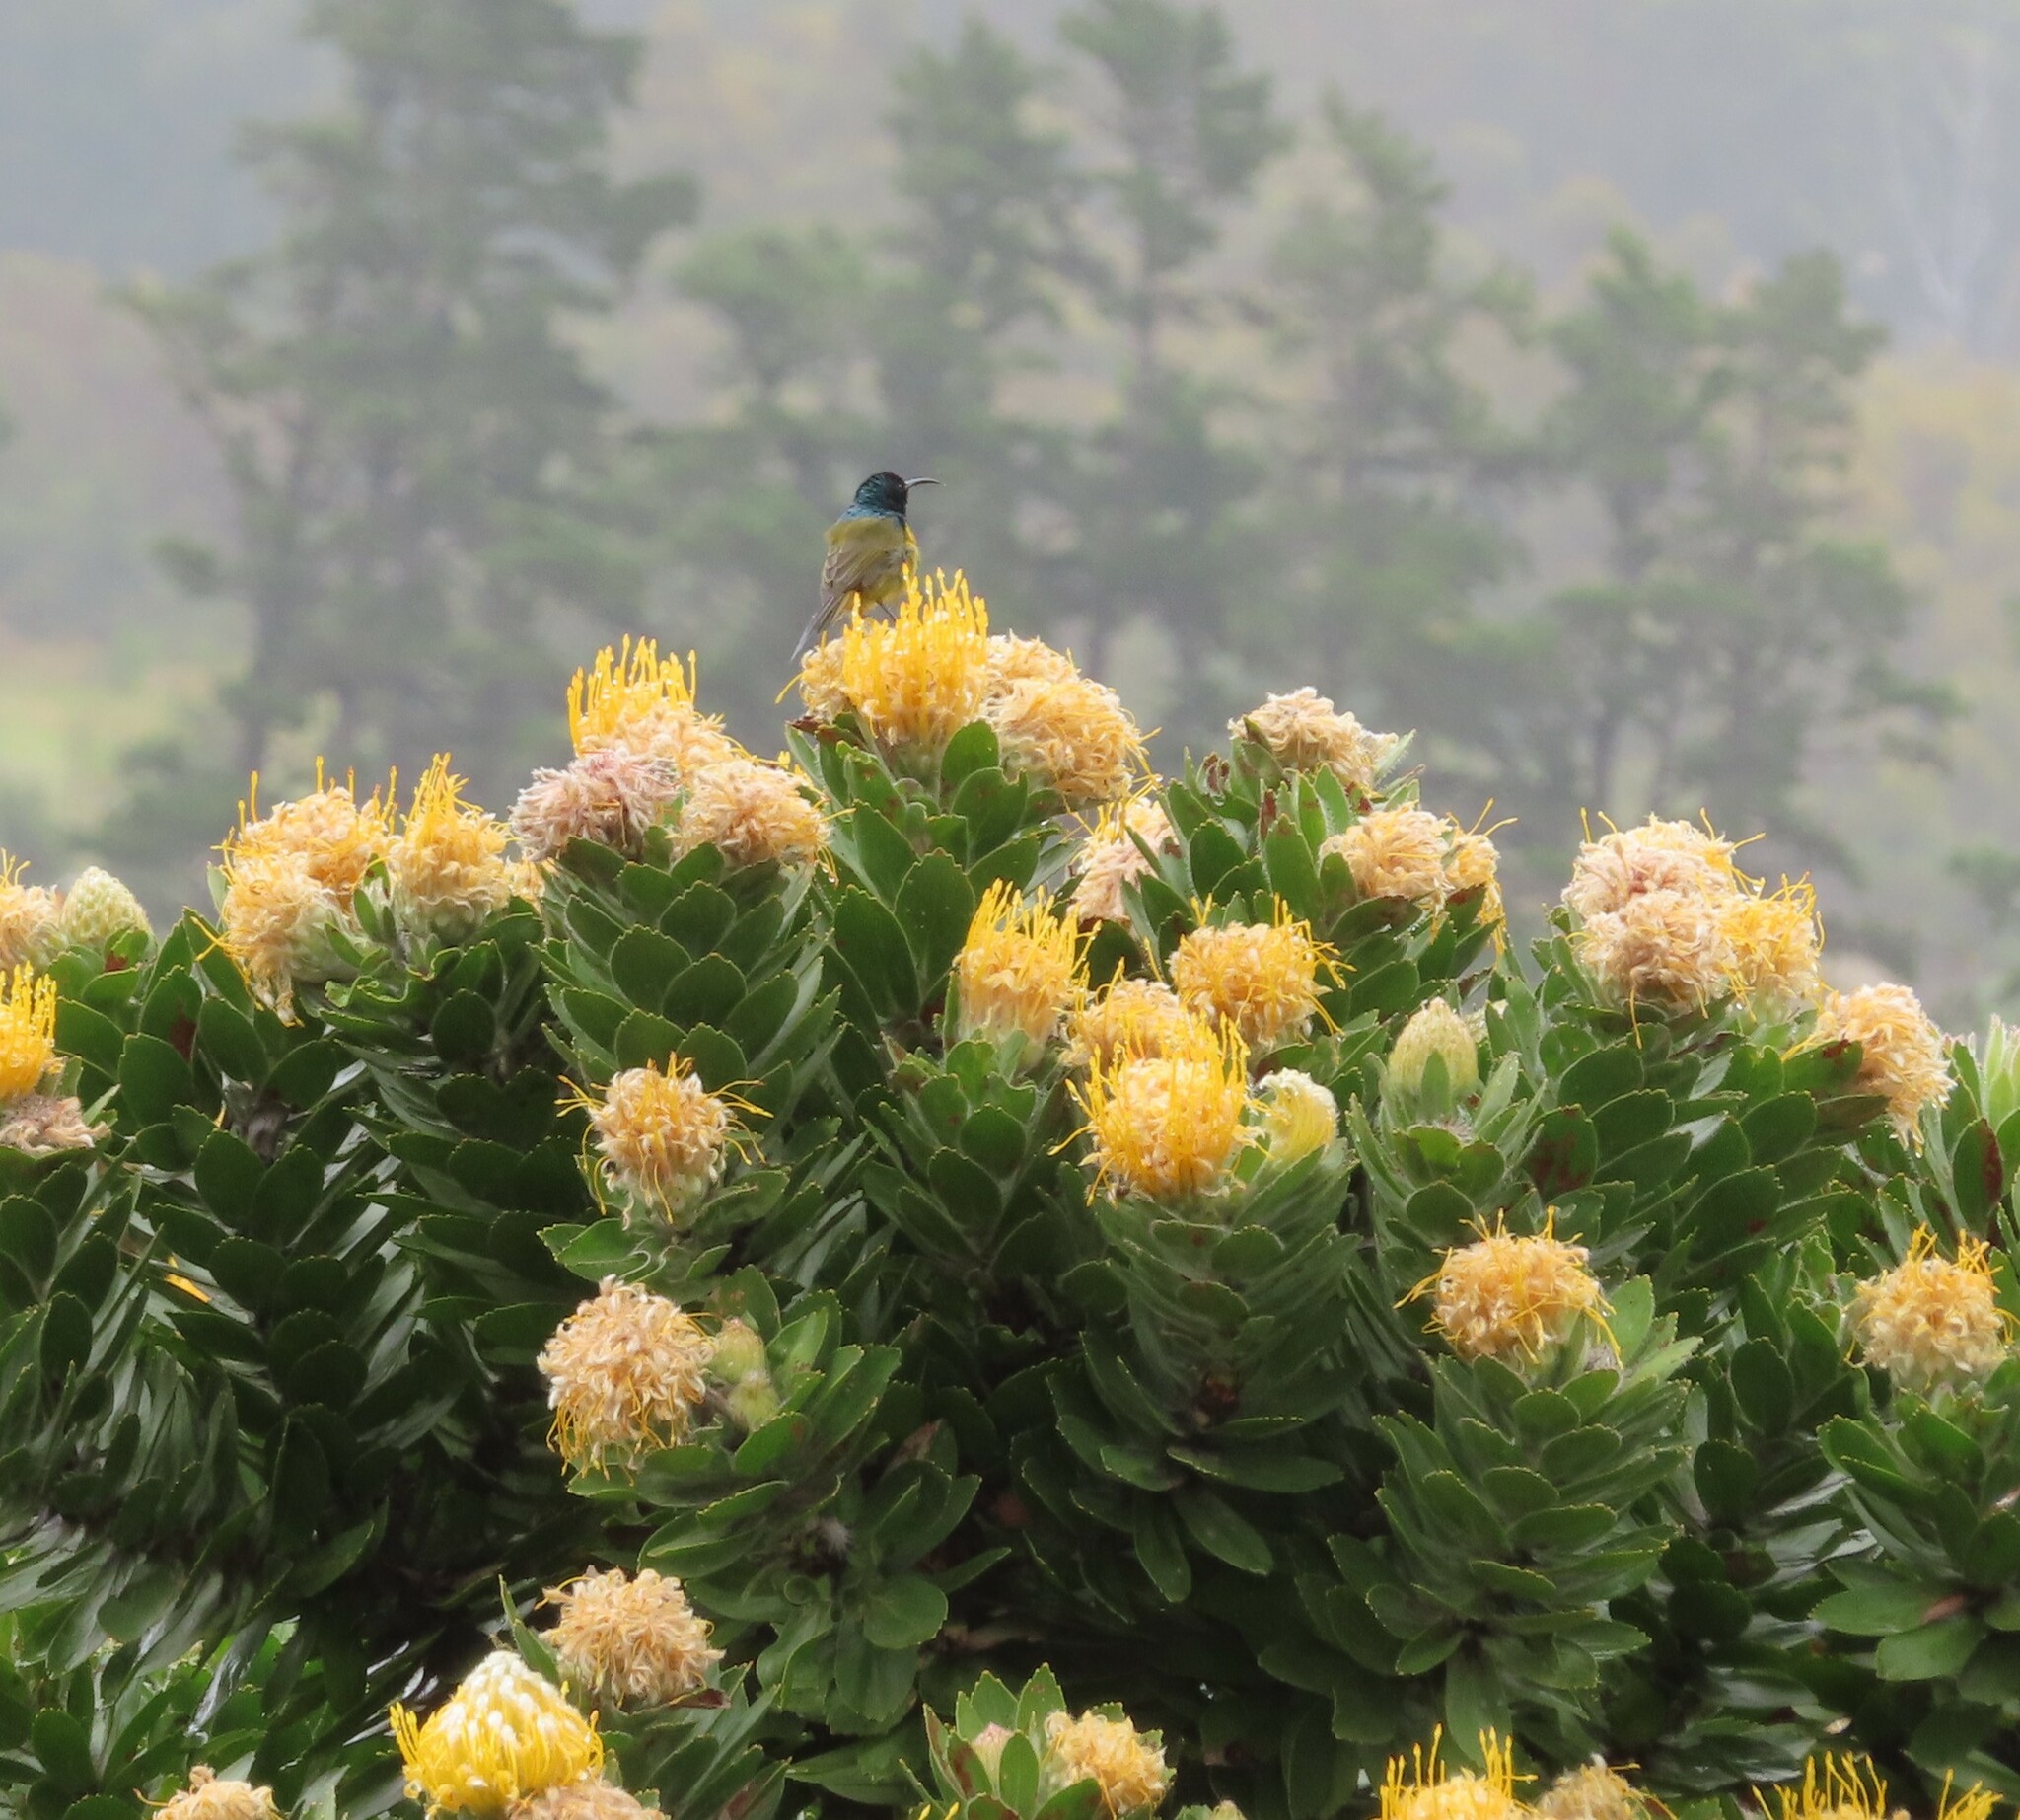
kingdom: Animalia
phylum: Chordata
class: Aves
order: Passeriformes
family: Nectariniidae
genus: Anthobaphes
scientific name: Anthobaphes violacea
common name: Orange-breasted sunbird
